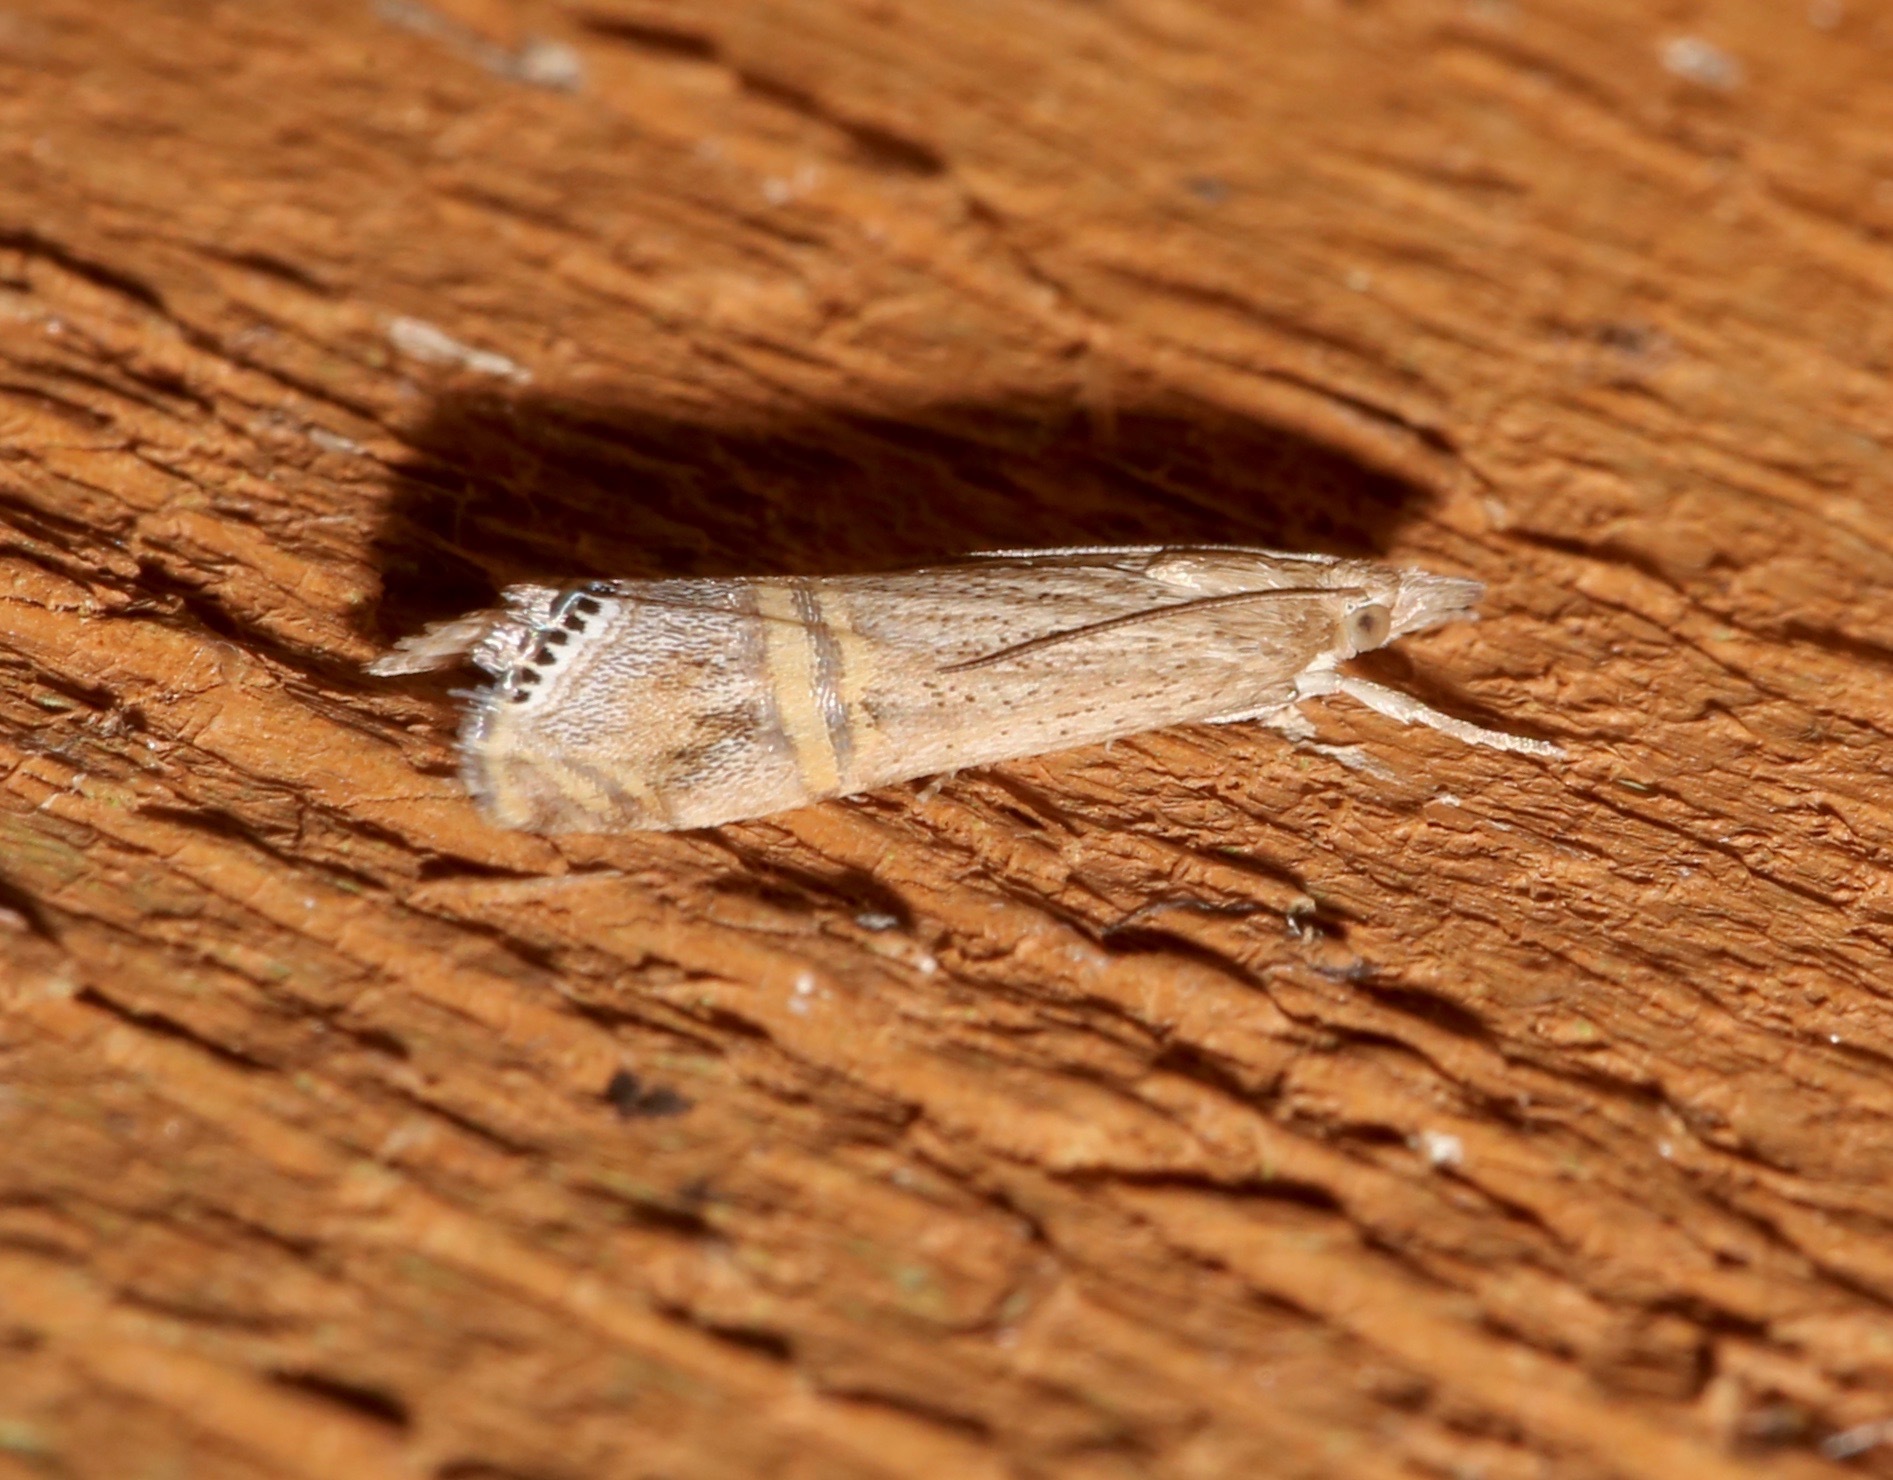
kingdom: Animalia
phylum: Arthropoda
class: Insecta
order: Lepidoptera
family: Crambidae
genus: Euchromius
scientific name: Euchromius ocellea
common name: Necklace veneer moth
